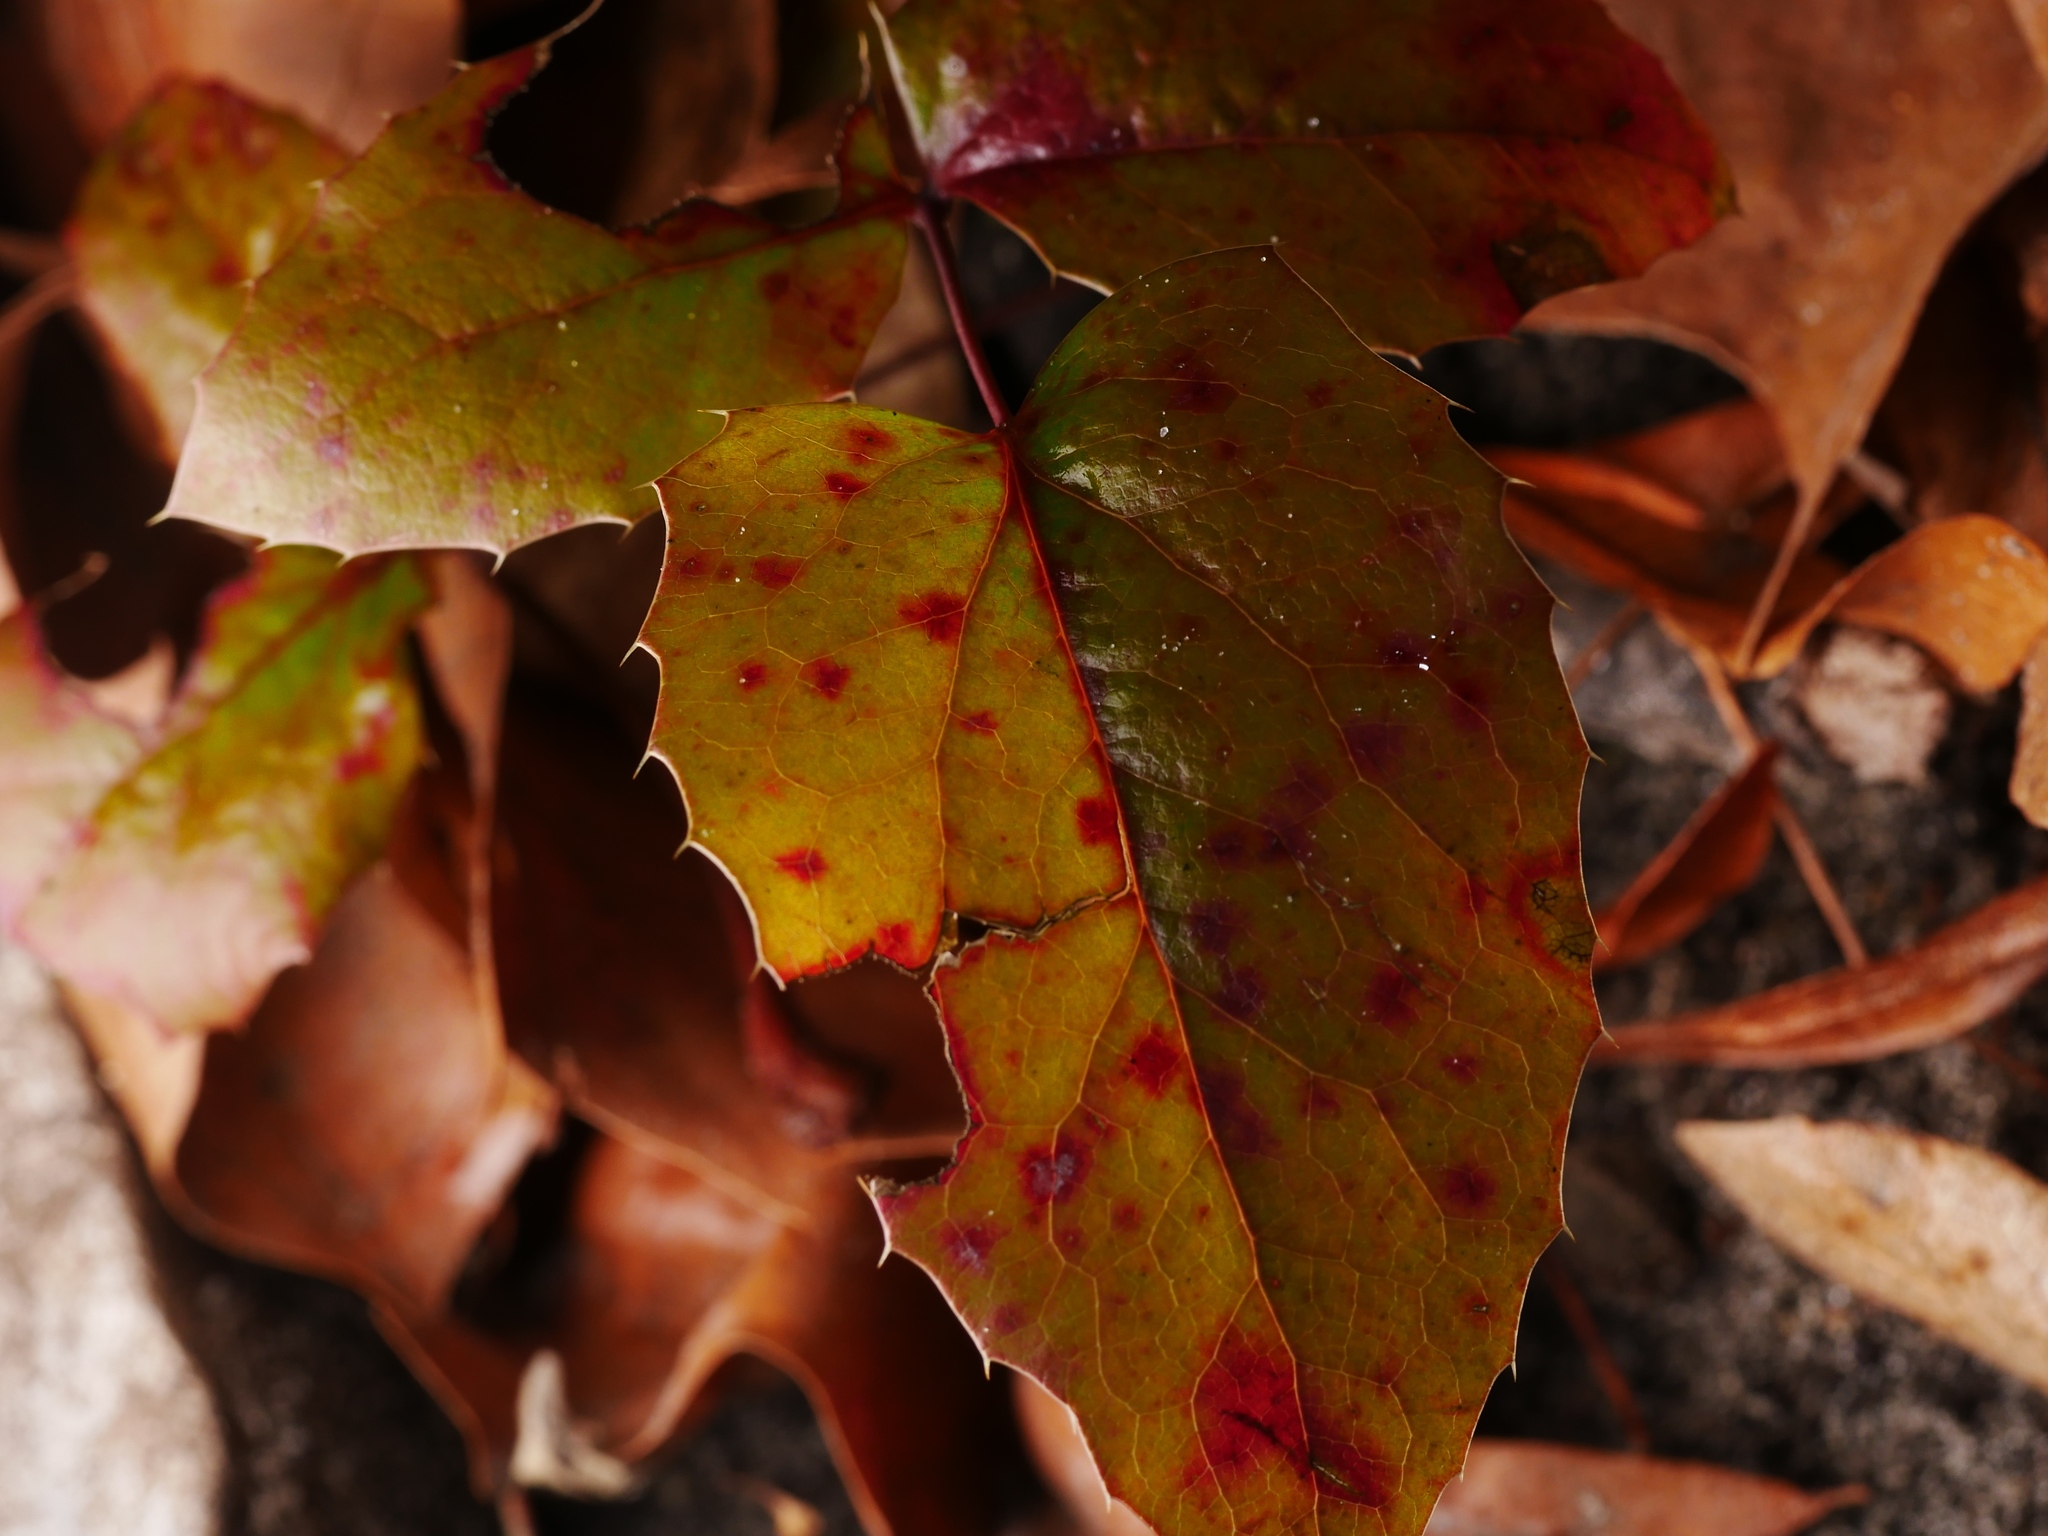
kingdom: Plantae
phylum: Tracheophyta
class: Magnoliopsida
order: Ranunculales
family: Berberidaceae
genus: Mahonia
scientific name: Mahonia aquifolium
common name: Oregon-grape
